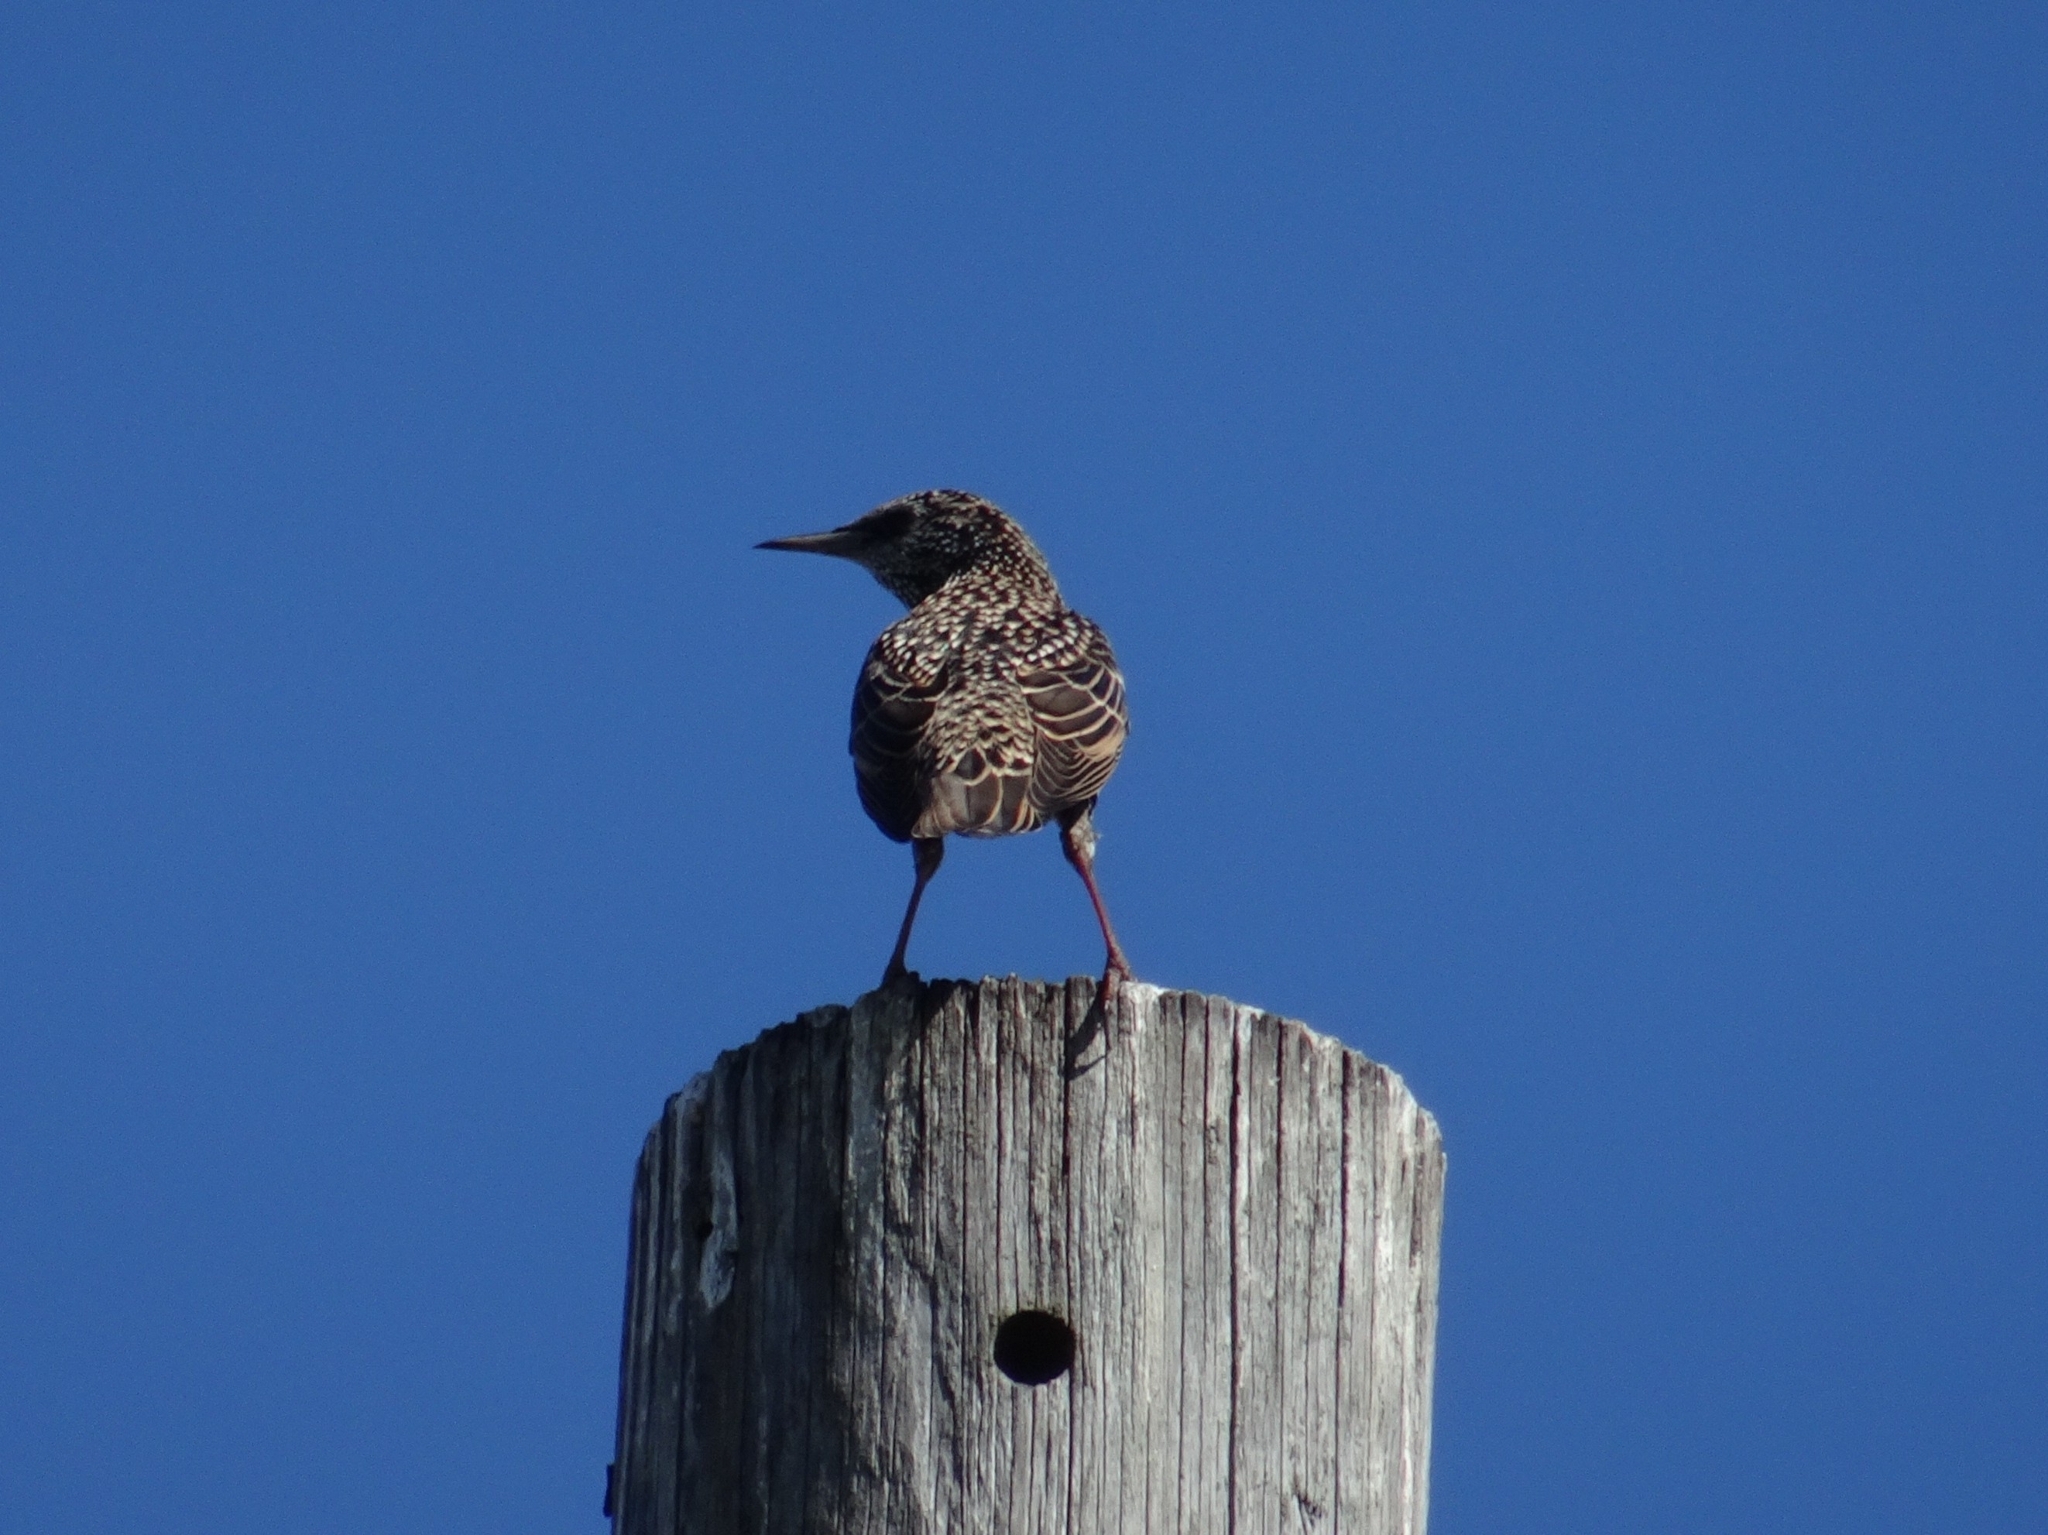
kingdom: Animalia
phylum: Chordata
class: Aves
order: Passeriformes
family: Sturnidae
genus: Sturnus
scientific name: Sturnus vulgaris
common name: Common starling
